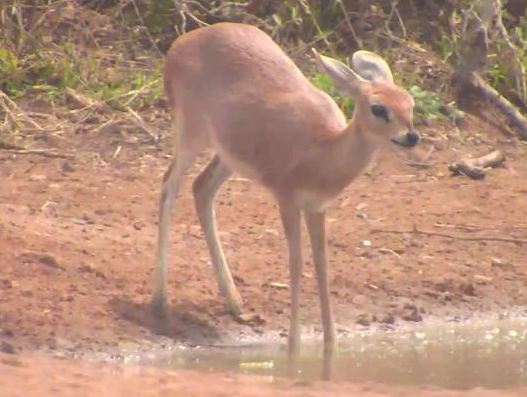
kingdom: Animalia
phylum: Chordata
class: Mammalia
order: Artiodactyla
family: Bovidae
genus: Raphicerus
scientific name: Raphicerus campestris
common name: Steenbok
